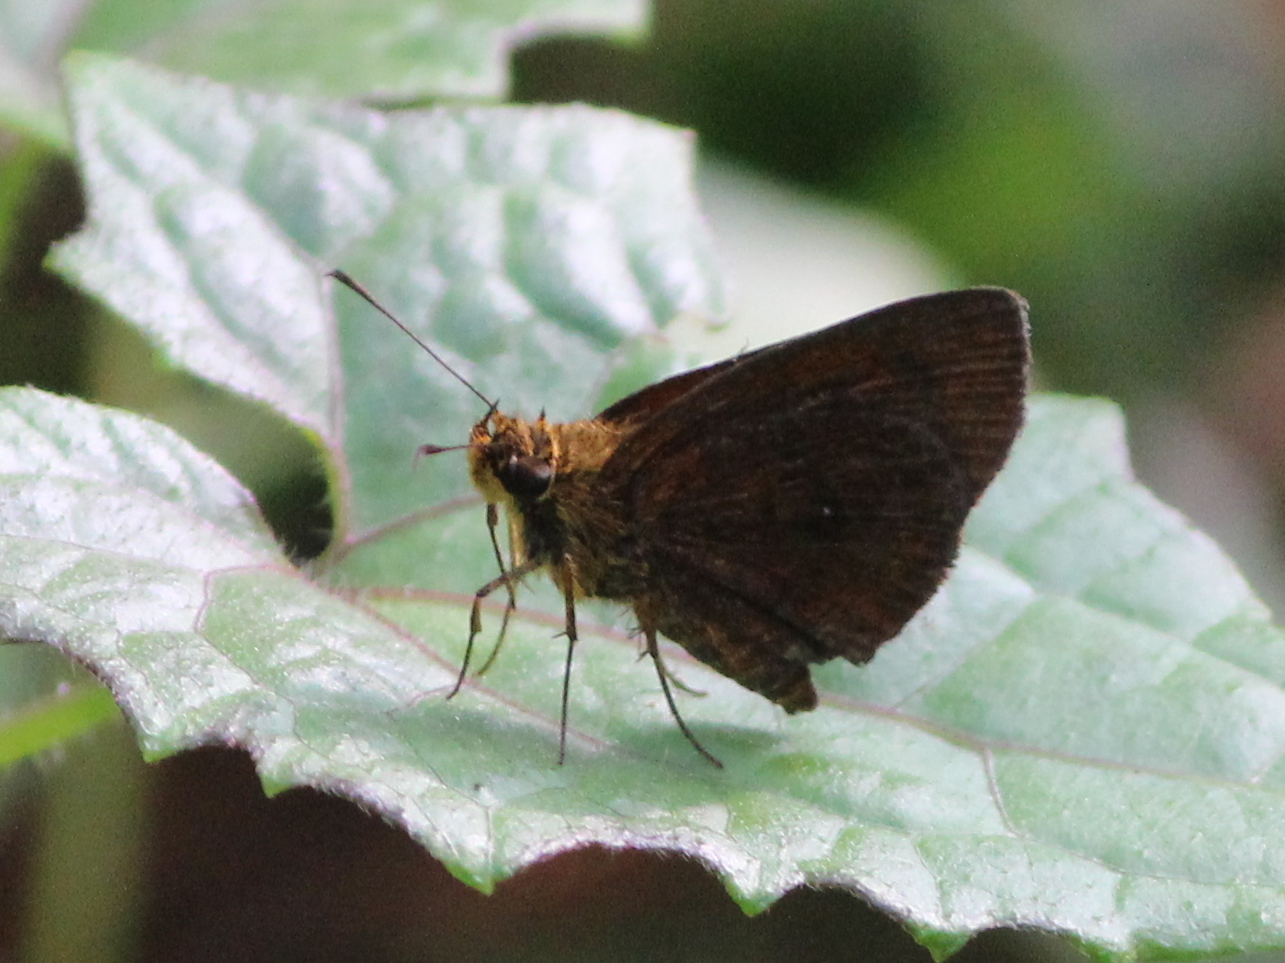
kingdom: Animalia
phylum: Arthropoda
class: Insecta
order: Lepidoptera
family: Hesperiidae
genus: Iambrix
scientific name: Iambrix salsala
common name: Chestnut bob
